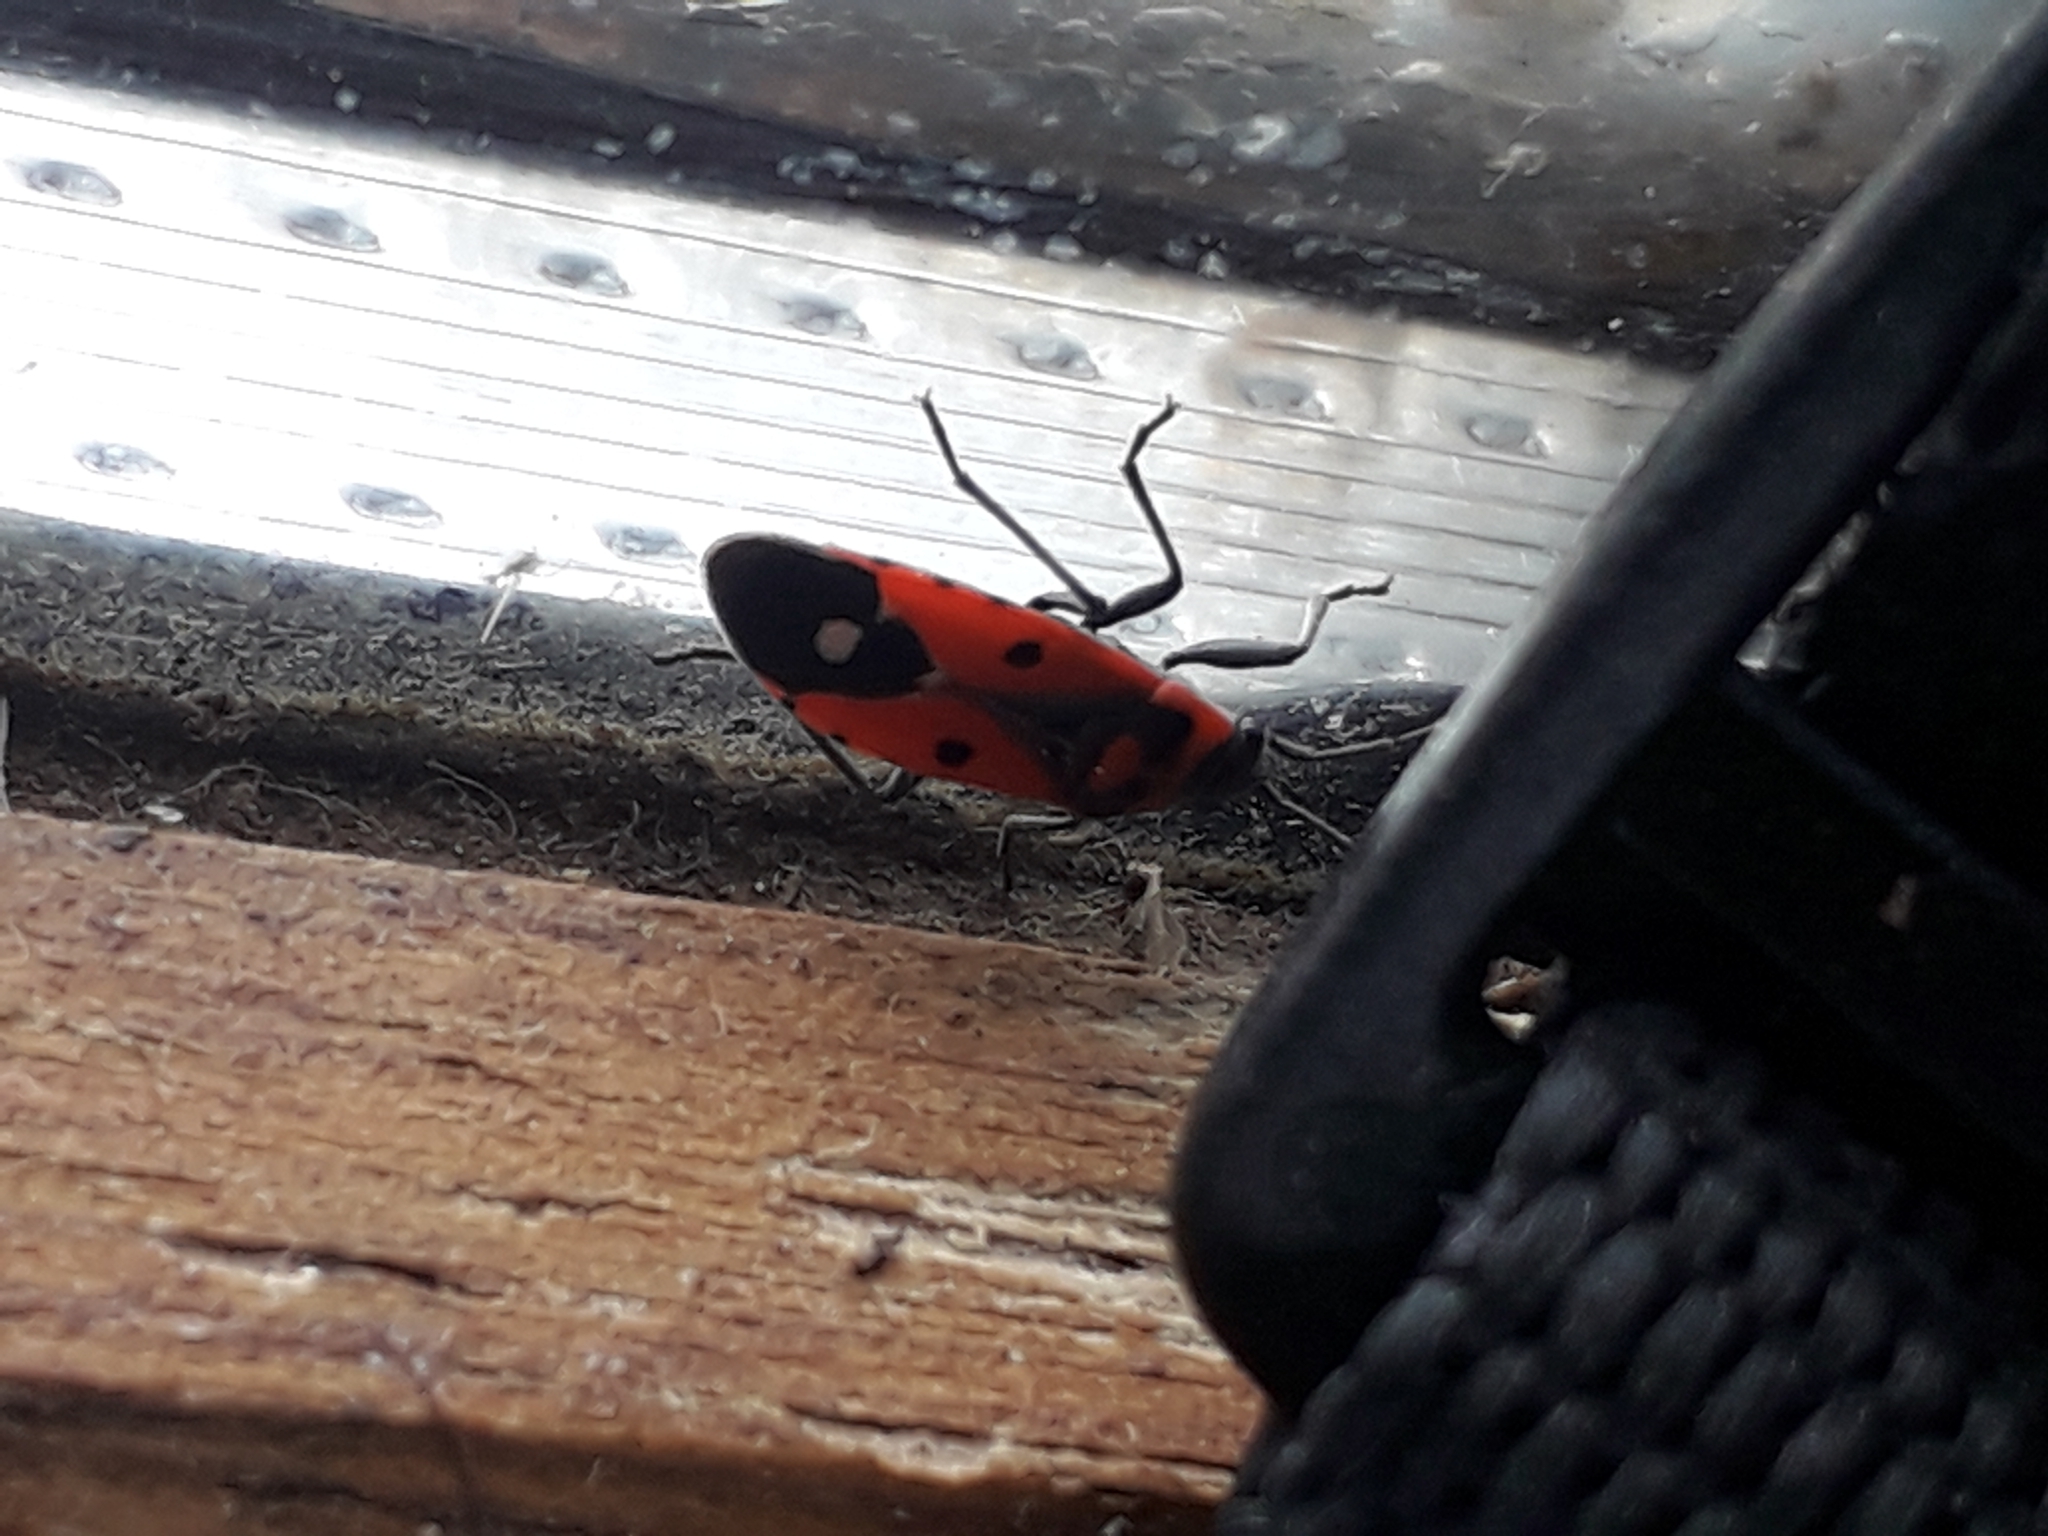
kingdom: Animalia
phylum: Arthropoda
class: Insecta
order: Hemiptera
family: Lygaeidae
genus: Melanocoryphus
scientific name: Melanocoryphus albomaculatus
